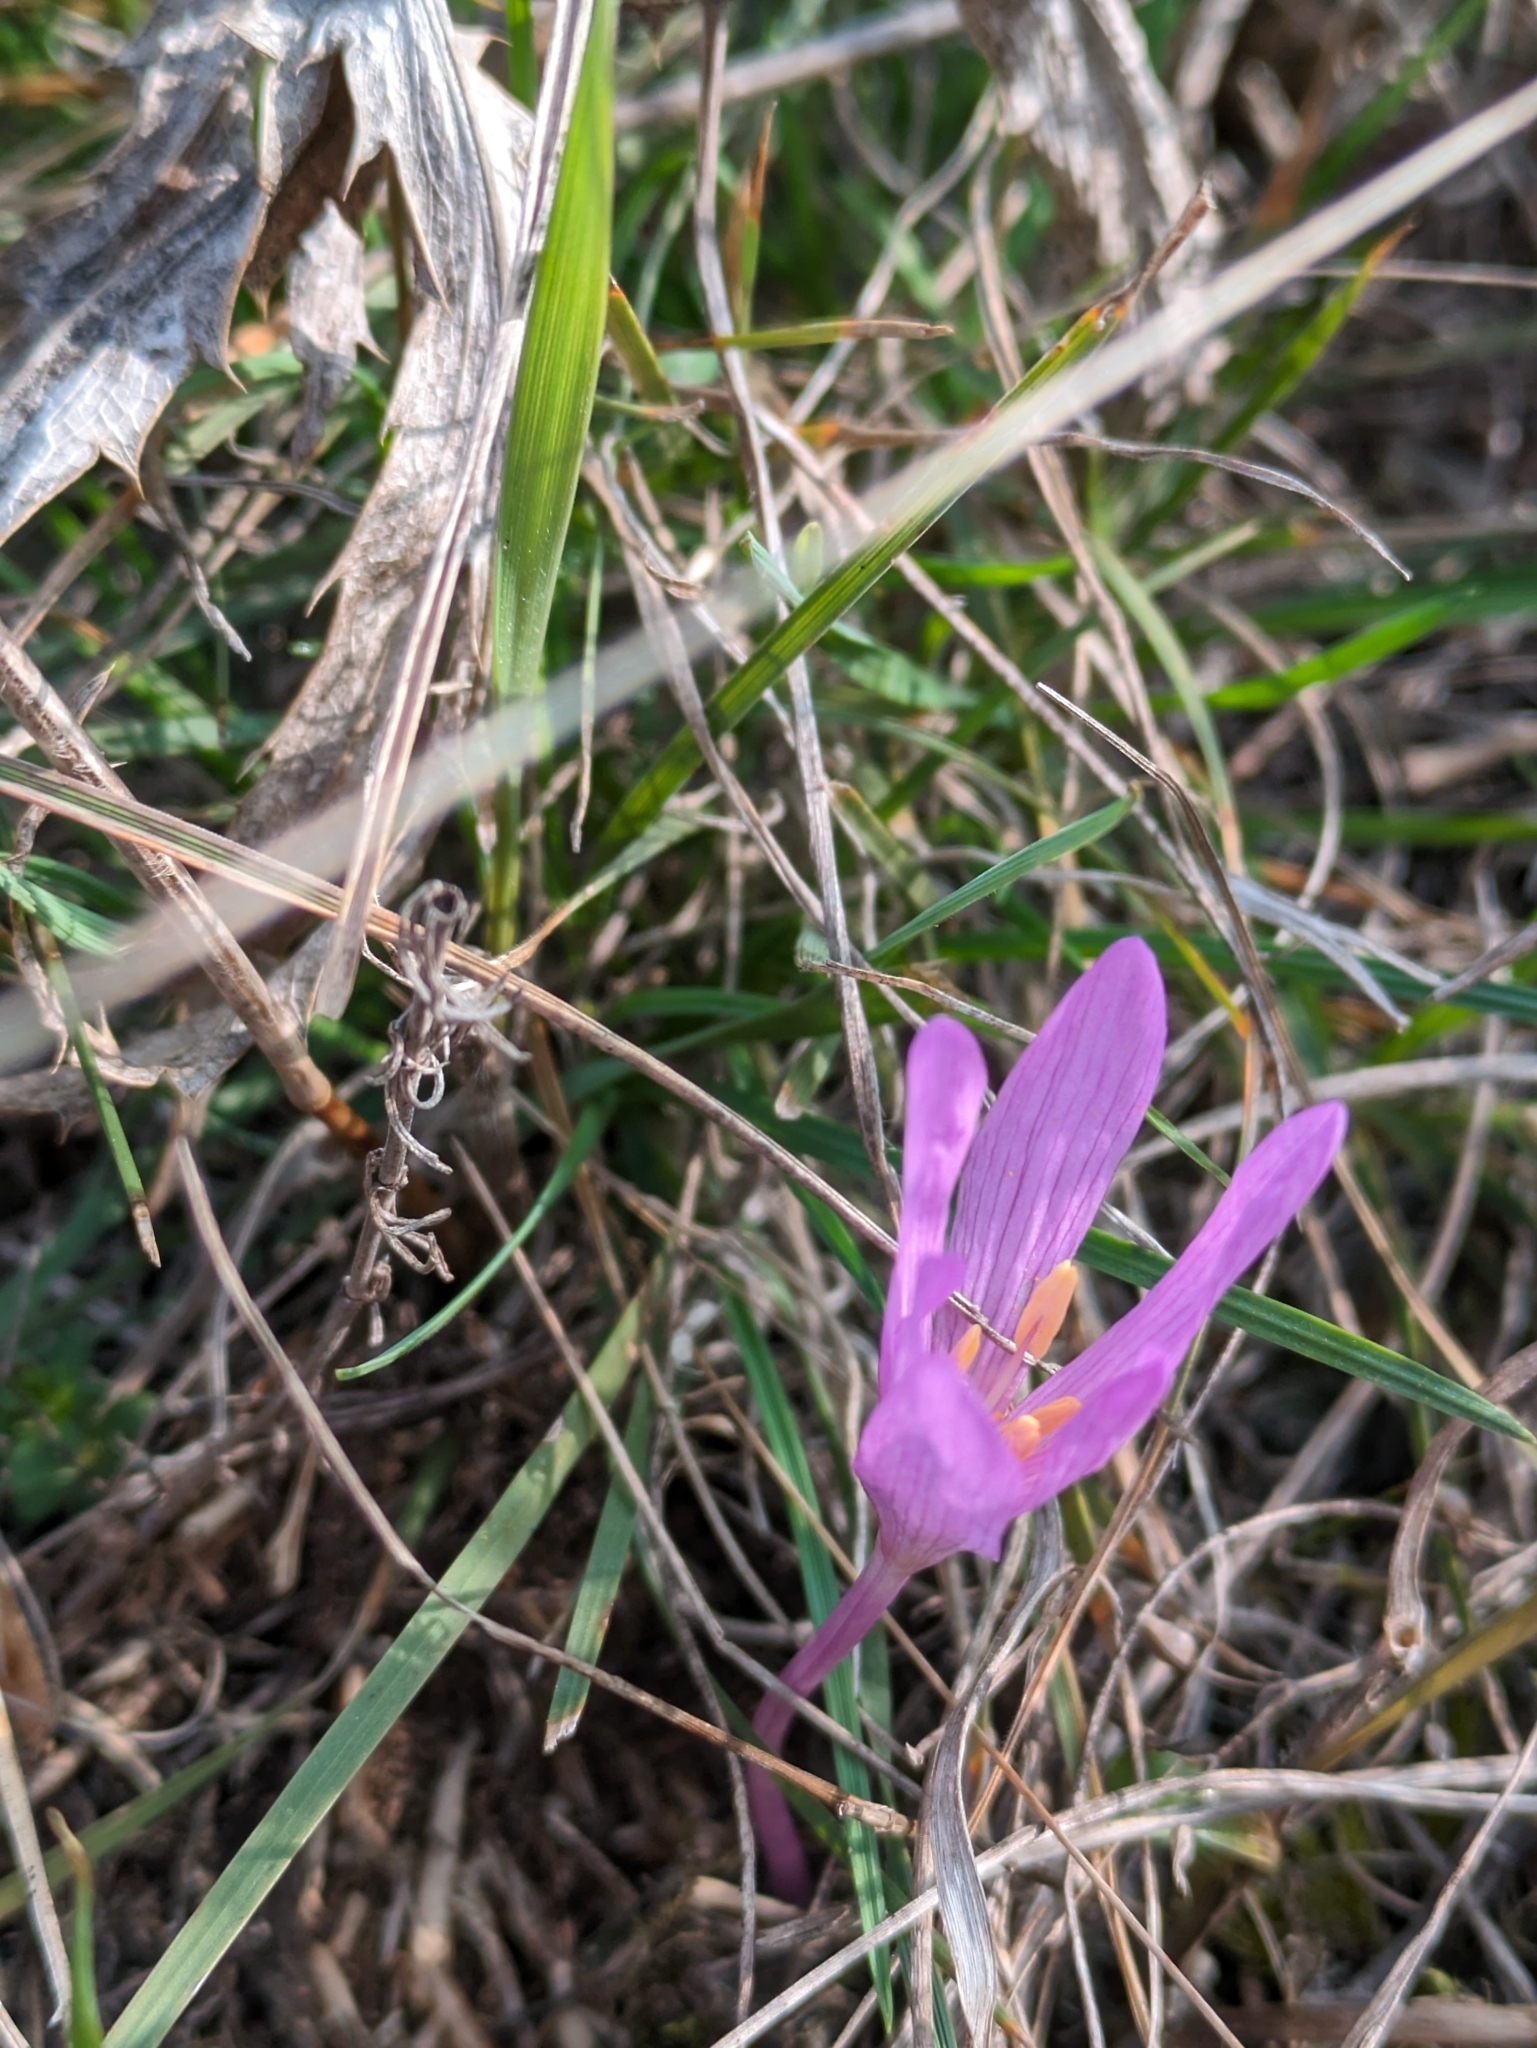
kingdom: Plantae
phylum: Tracheophyta
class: Liliopsida
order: Liliales
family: Colchicaceae
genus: Colchicum
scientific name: Colchicum arenarium
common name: Sand saffron
